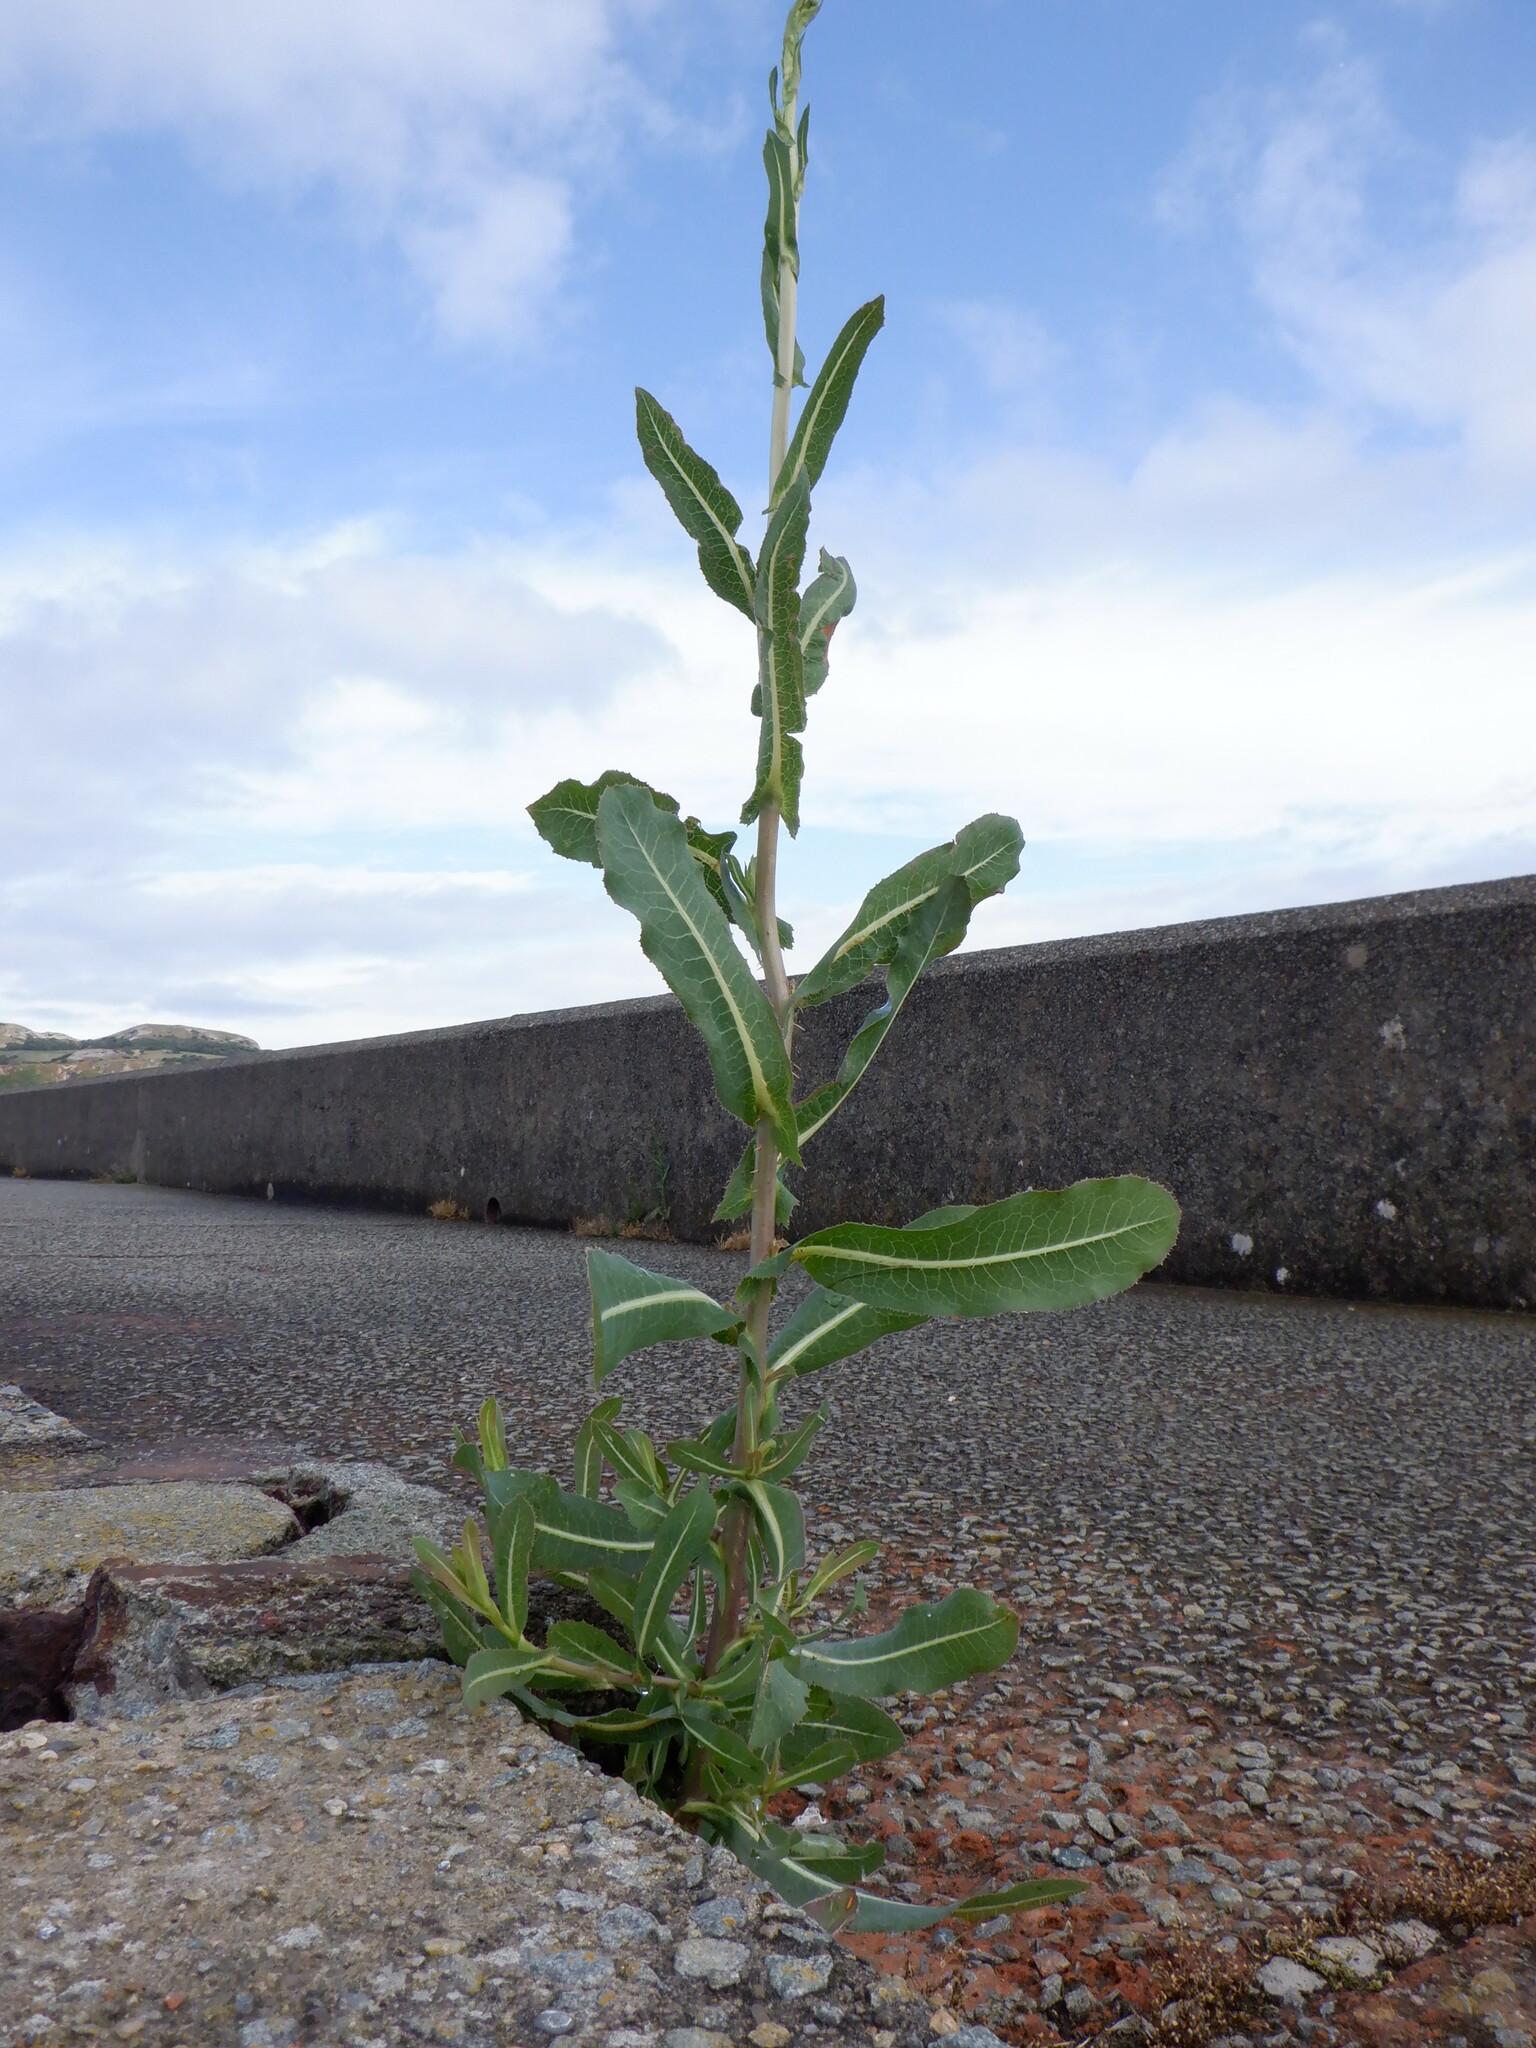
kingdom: Plantae
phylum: Tracheophyta
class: Magnoliopsida
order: Asterales
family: Asteraceae
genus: Lactuca
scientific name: Lactuca serriola
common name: Prickly lettuce
